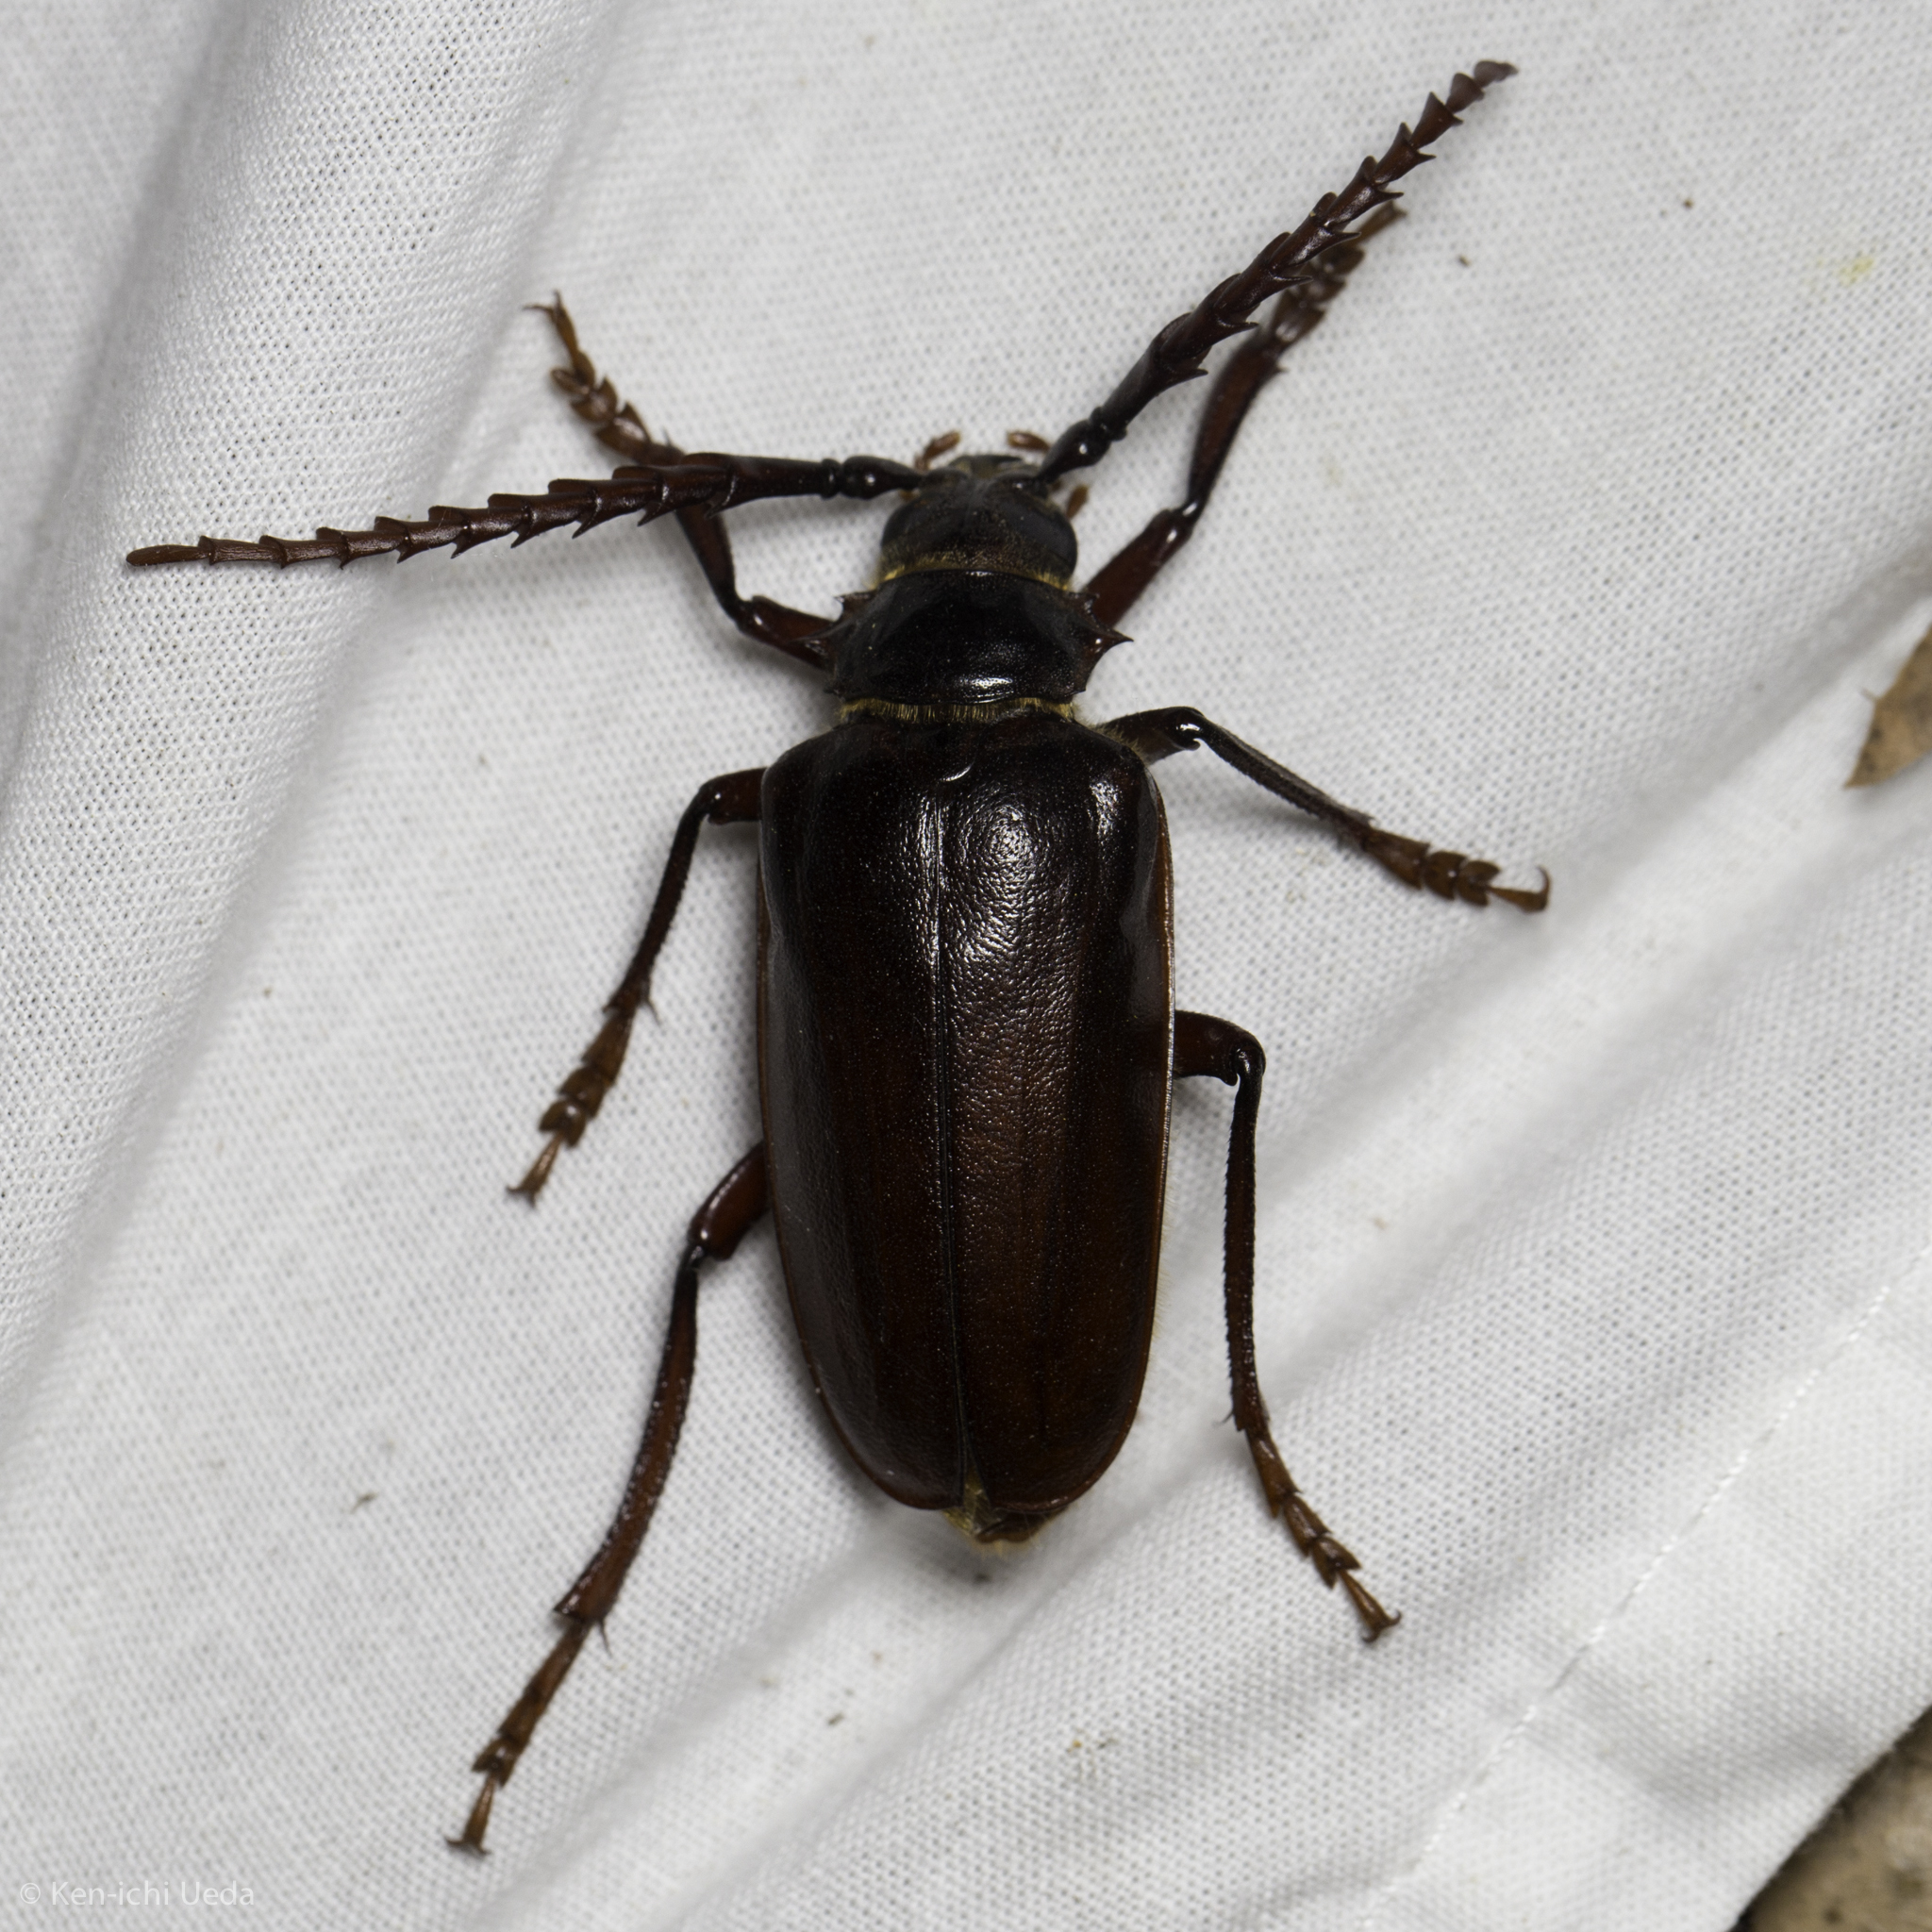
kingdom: Animalia
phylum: Arthropoda
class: Insecta
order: Coleoptera
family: Cerambycidae
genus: Prionus
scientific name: Prionus californicus
